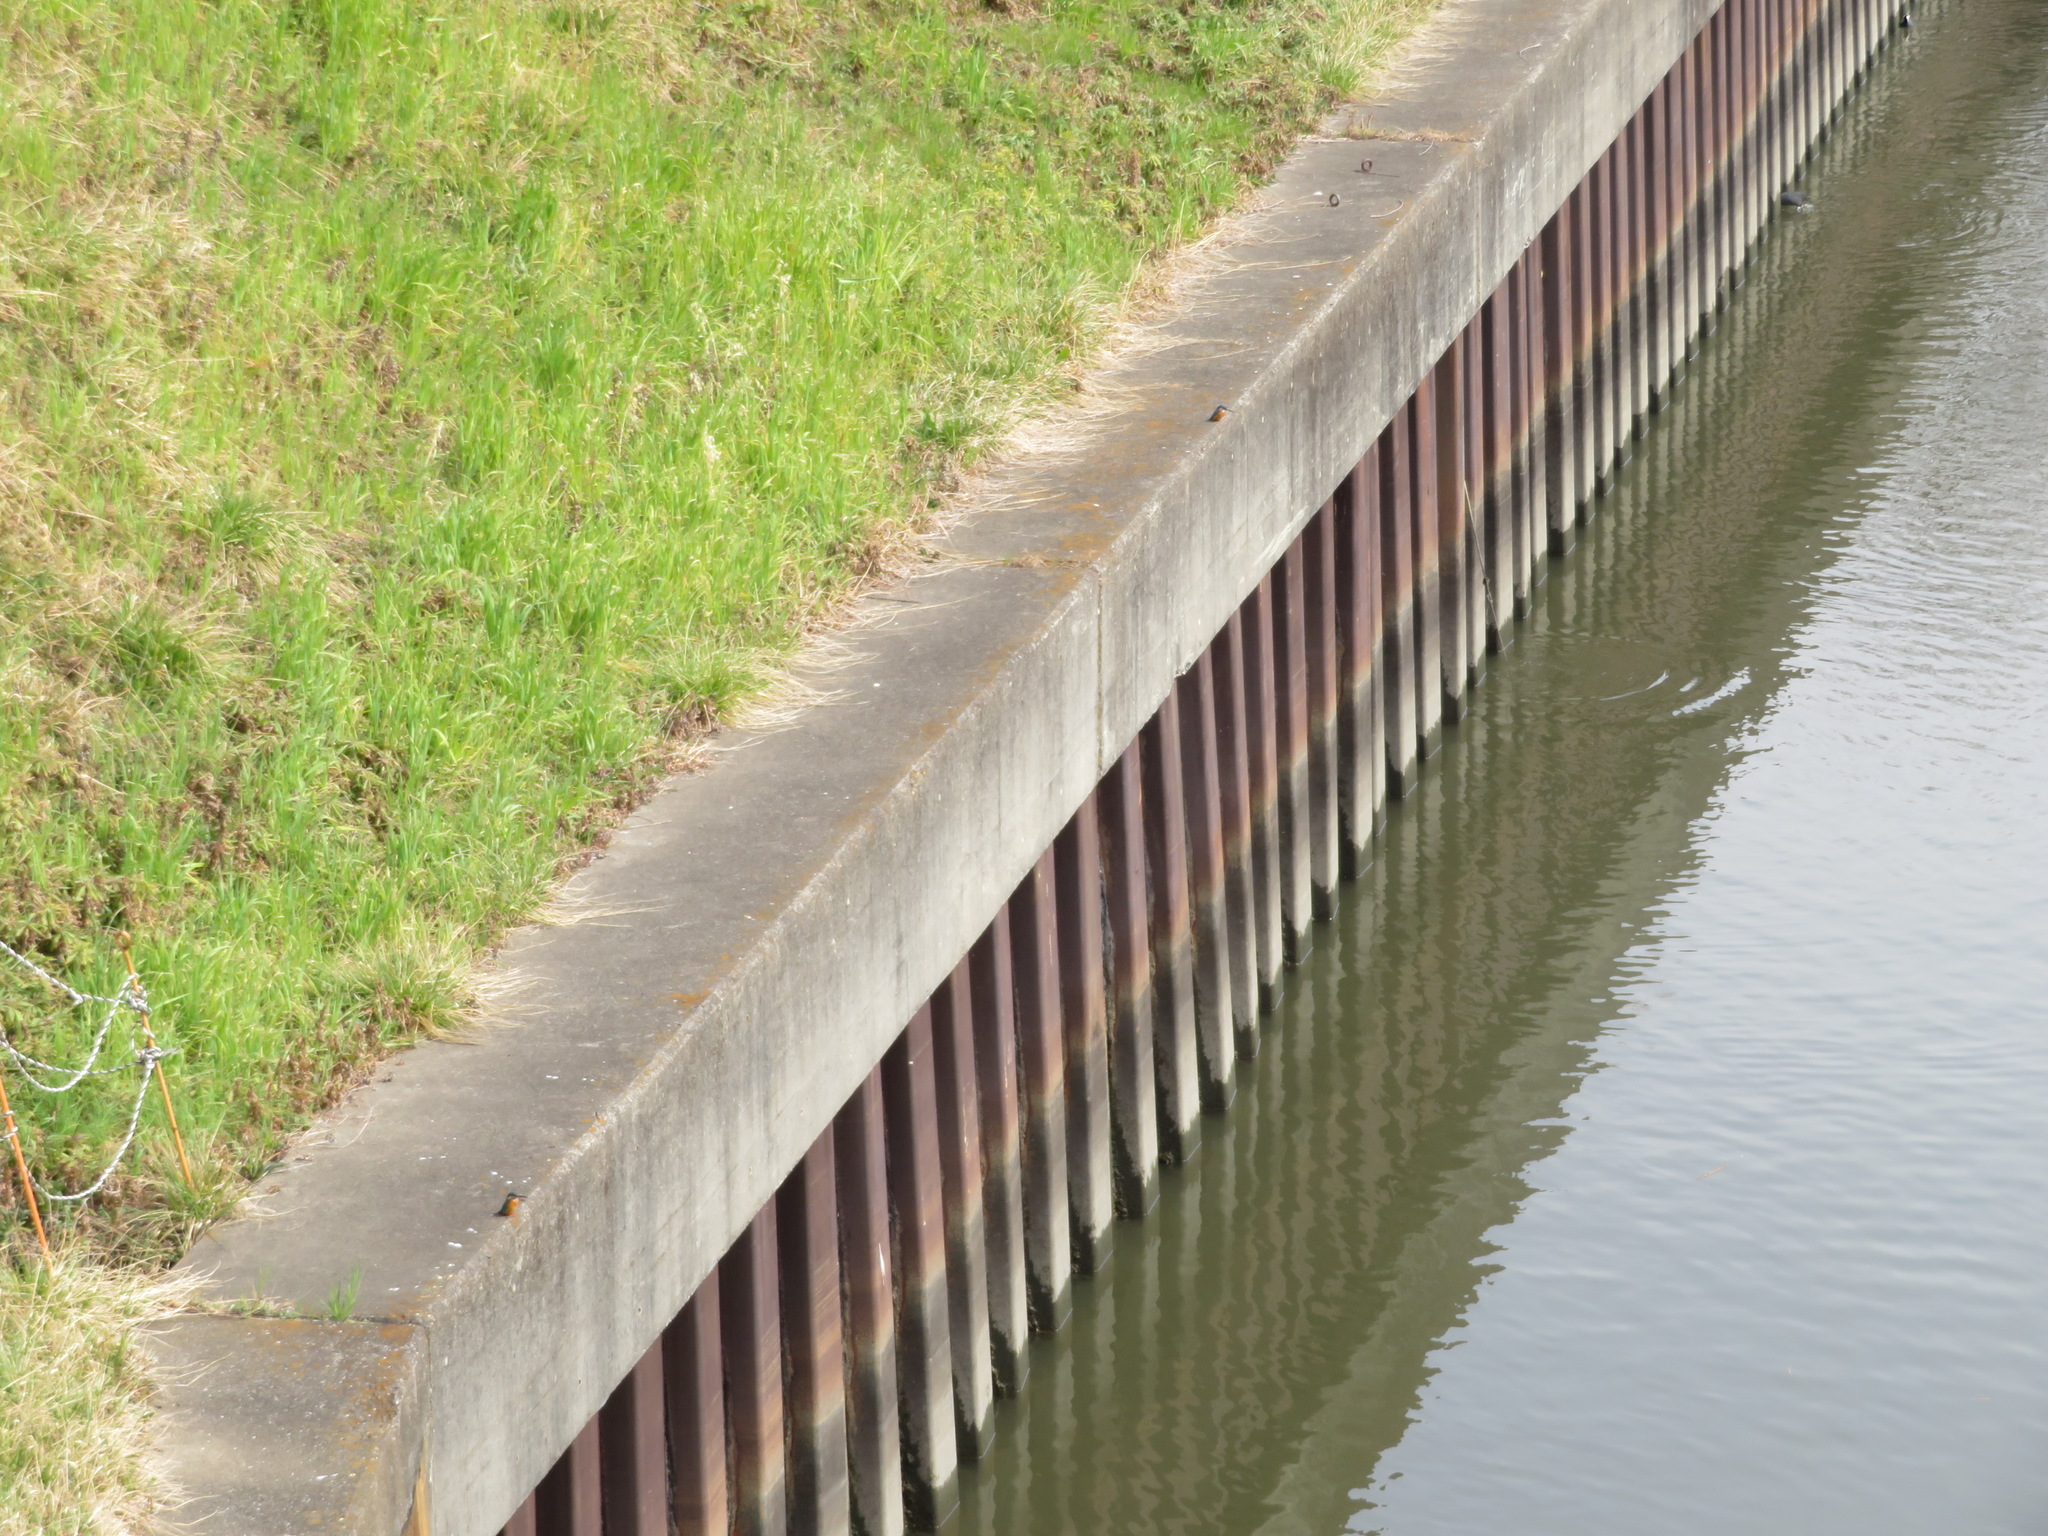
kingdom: Animalia
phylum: Chordata
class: Aves
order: Coraciiformes
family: Alcedinidae
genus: Alcedo
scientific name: Alcedo atthis
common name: Common kingfisher
